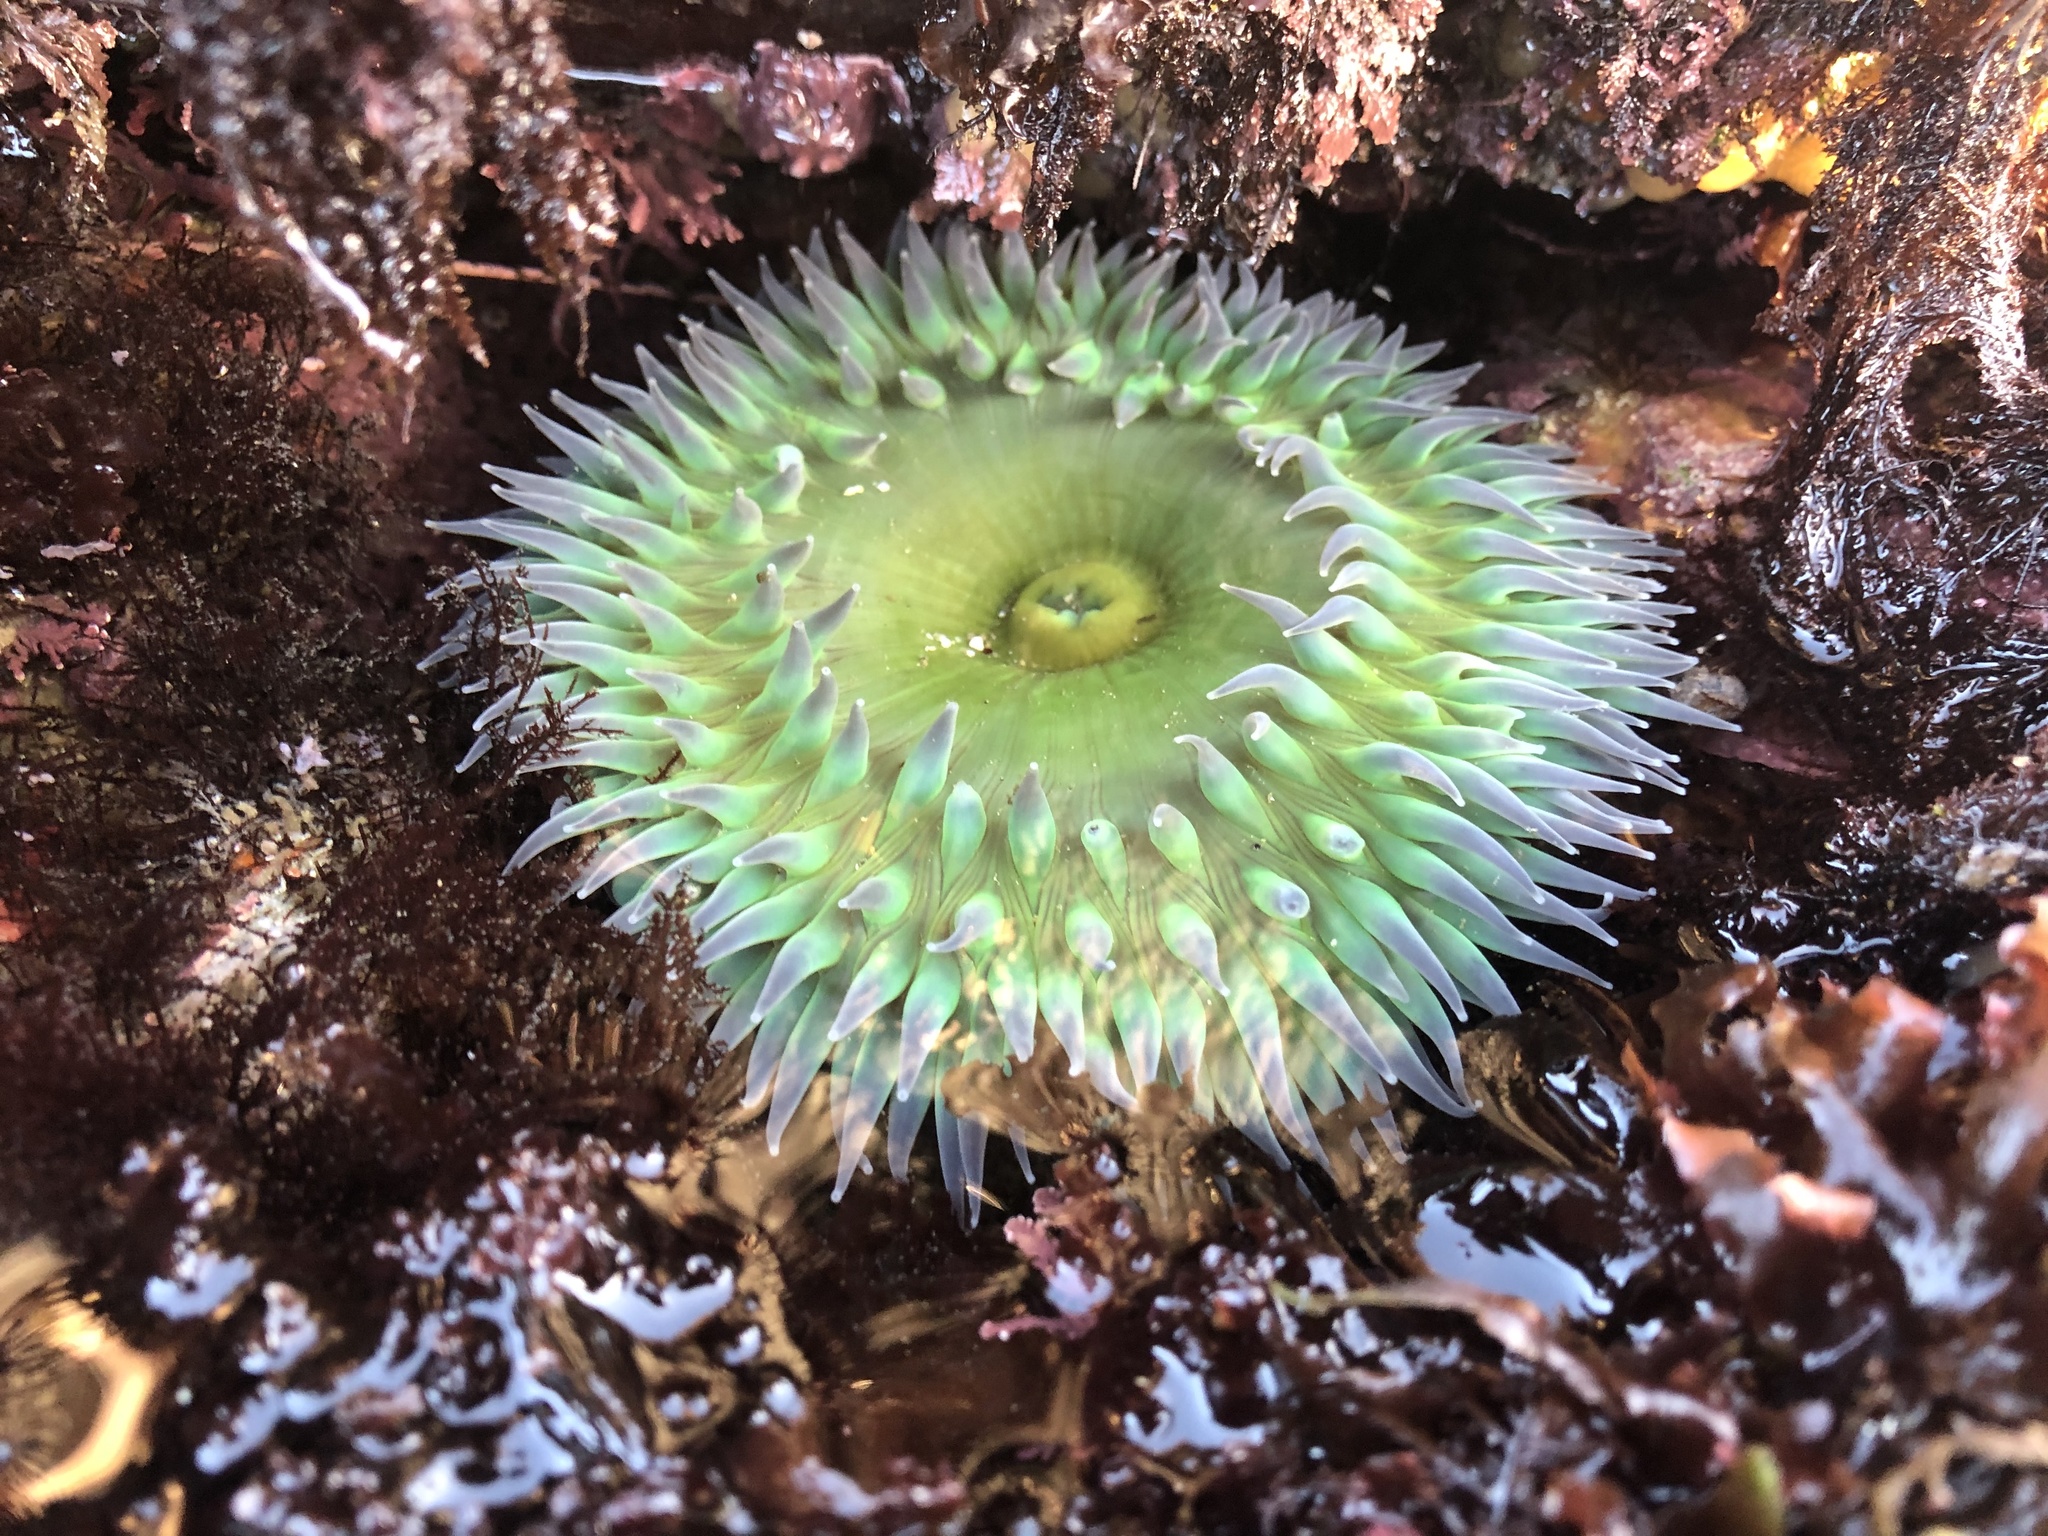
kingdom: Animalia
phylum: Cnidaria
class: Anthozoa
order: Actiniaria
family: Actiniidae
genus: Anthopleura
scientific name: Anthopleura xanthogrammica
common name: Giant green anemone
